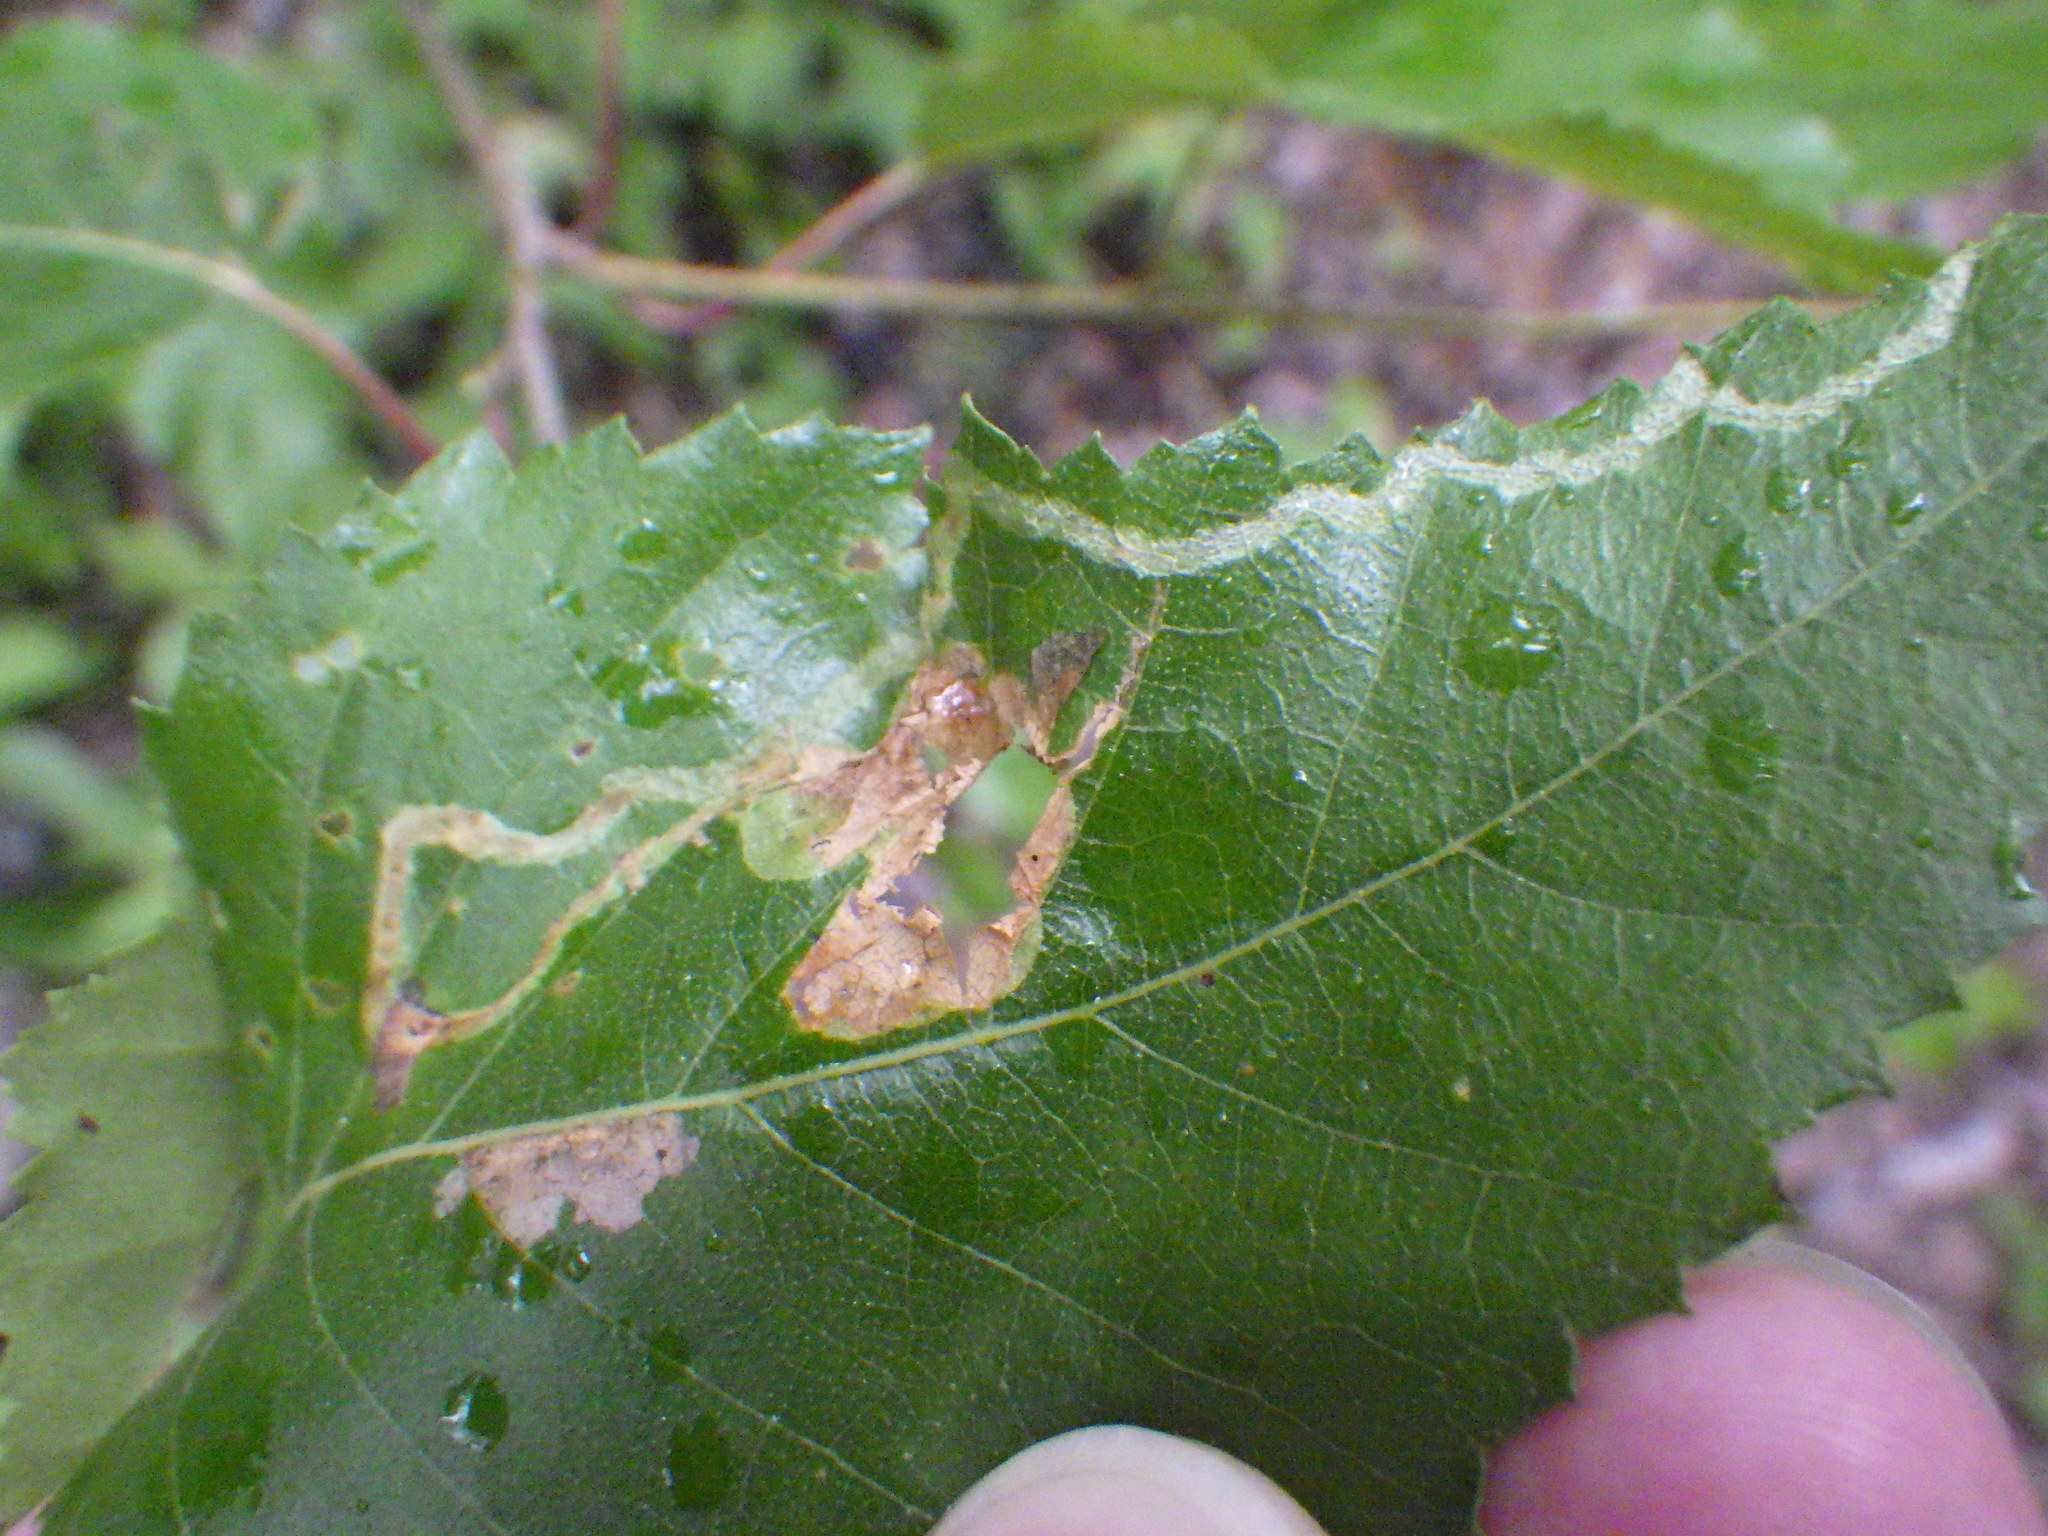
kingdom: Animalia
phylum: Arthropoda
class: Insecta
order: Diptera
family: Agromyzidae
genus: Agromyza
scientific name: Agromyza alnibetulae
